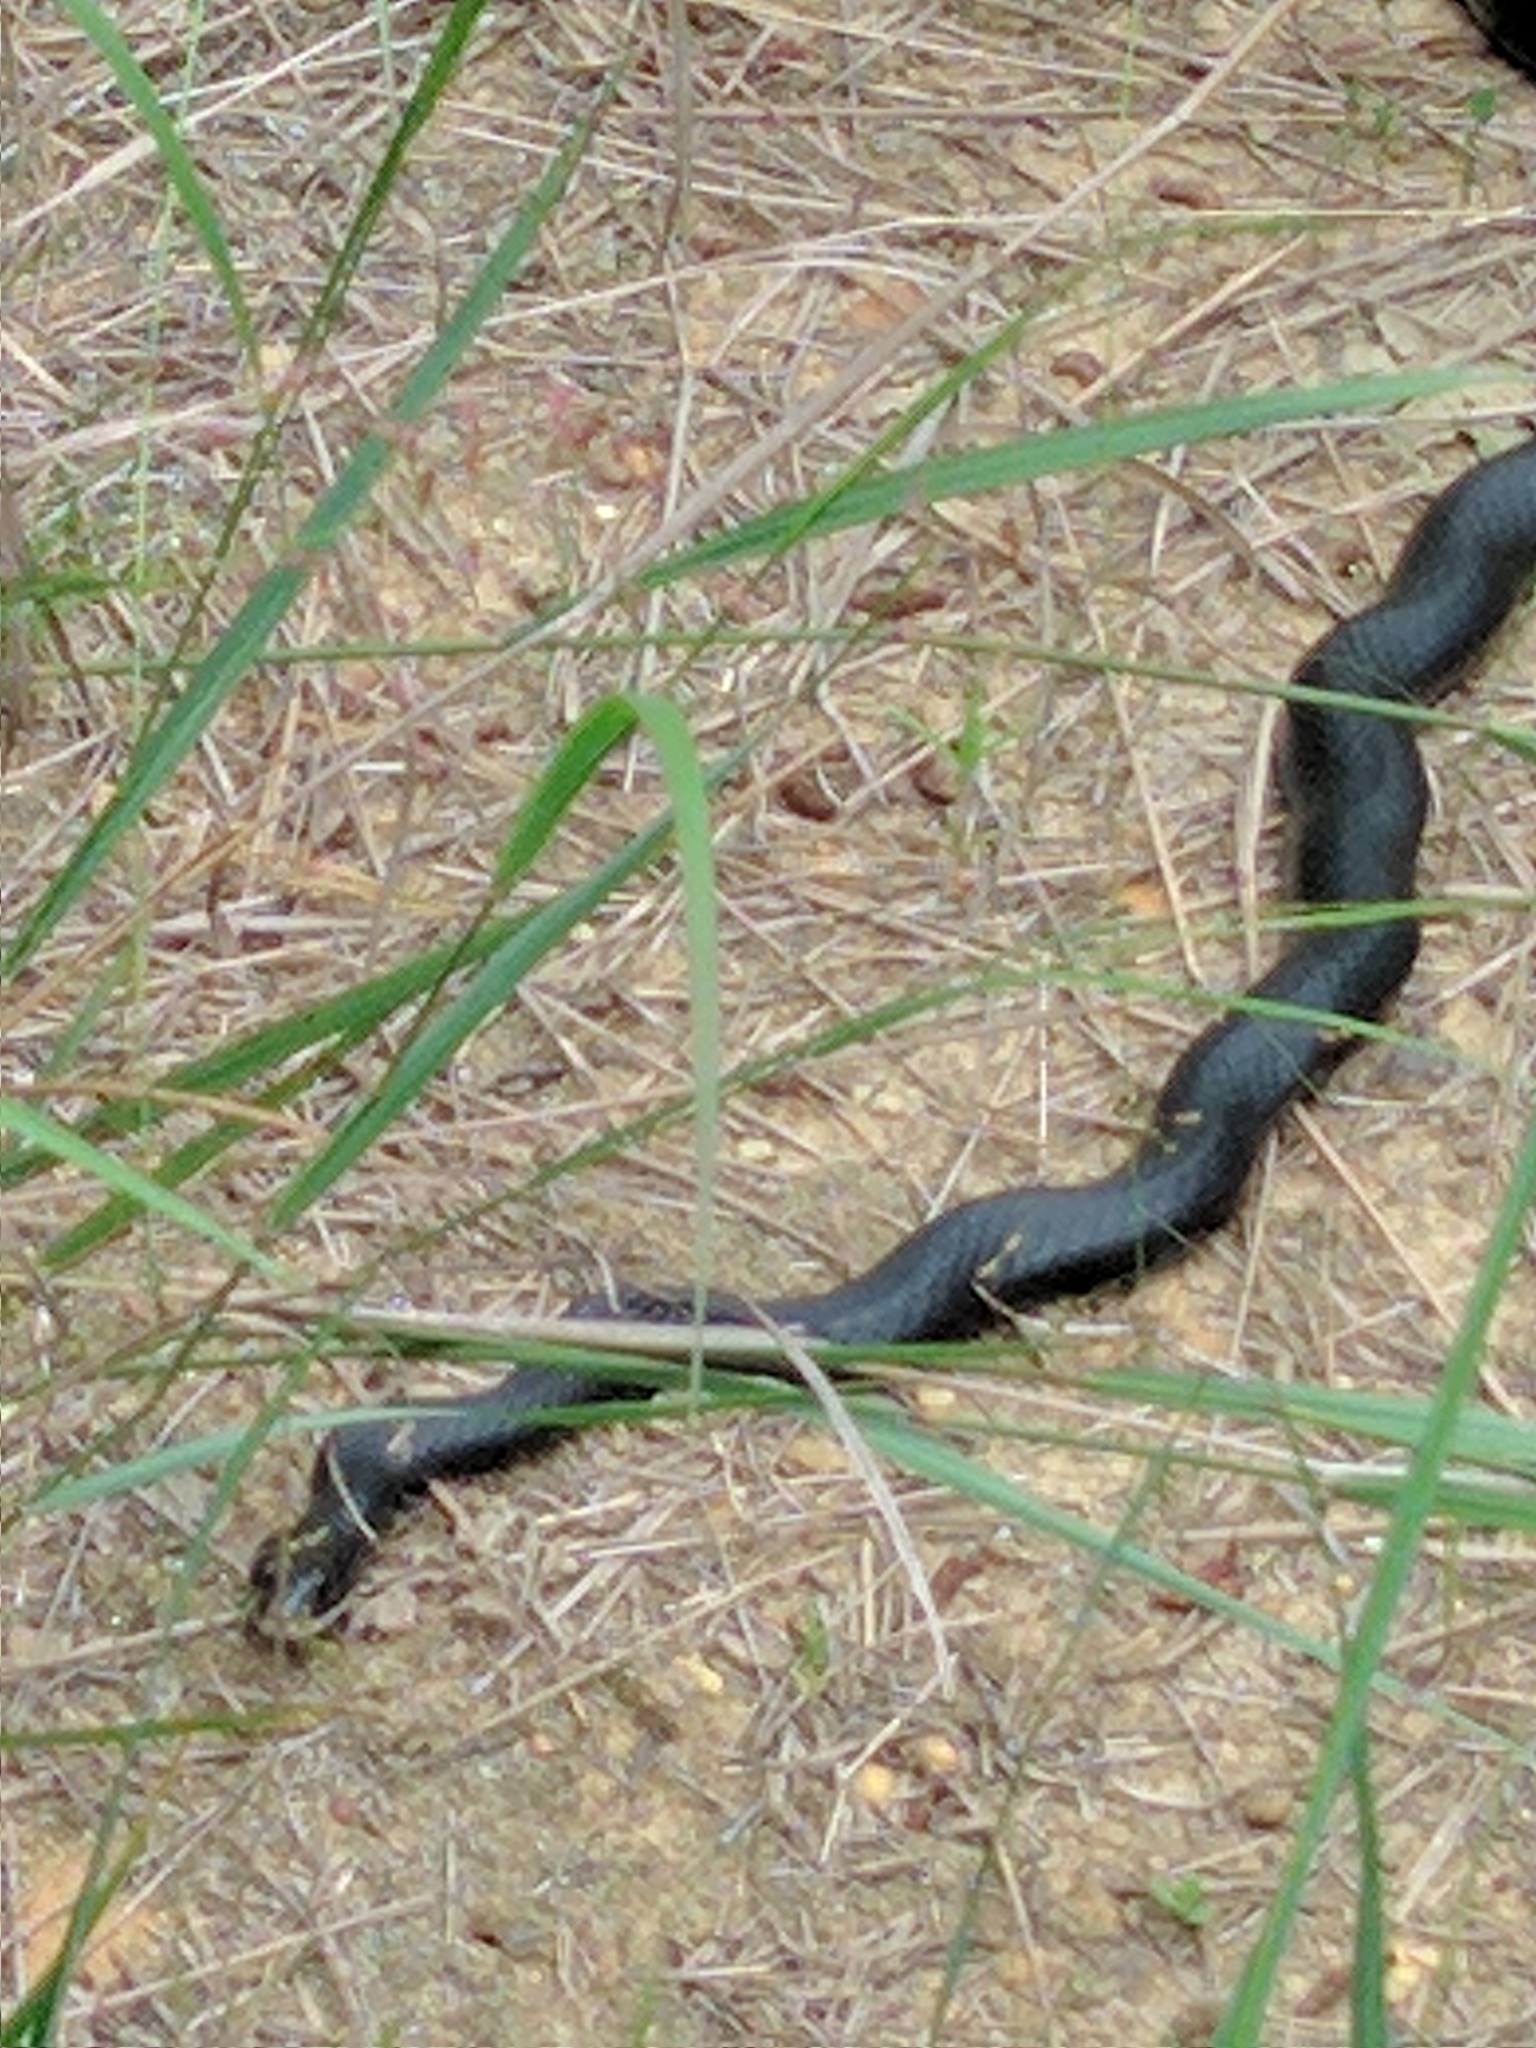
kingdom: Animalia
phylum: Chordata
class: Squamata
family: Colubridae
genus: Coluber
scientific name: Coluber constrictor
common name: Eastern racer
